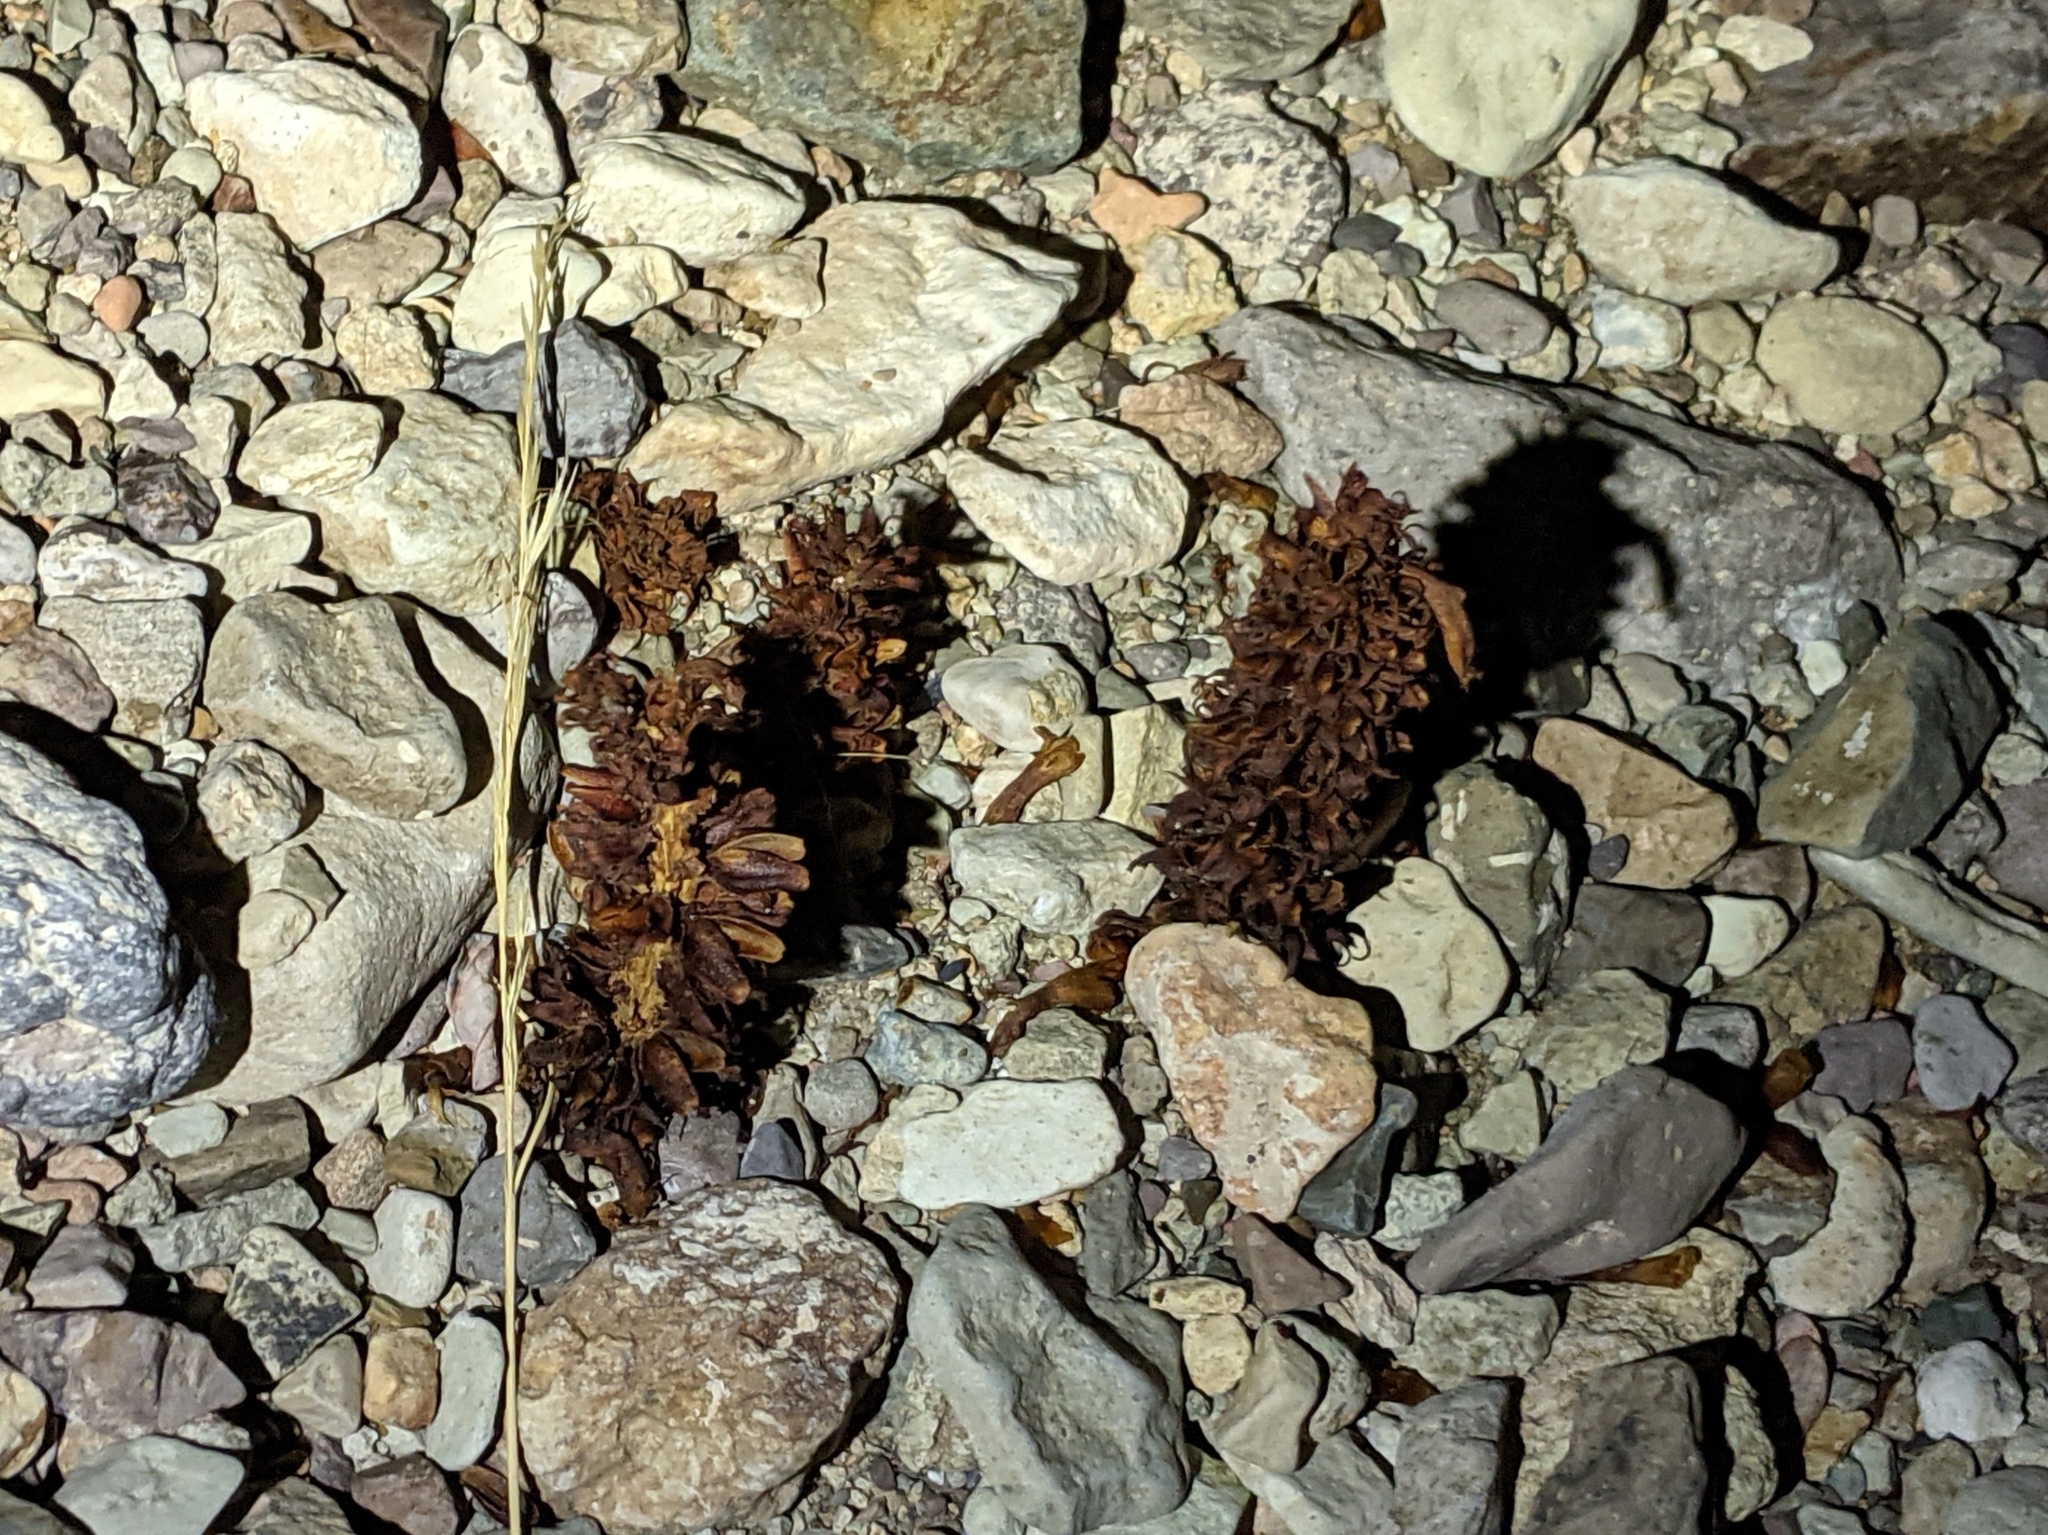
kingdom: Plantae
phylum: Tracheophyta
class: Magnoliopsida
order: Lamiales
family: Orobanchaceae
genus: Conopholis
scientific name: Conopholis alpina
